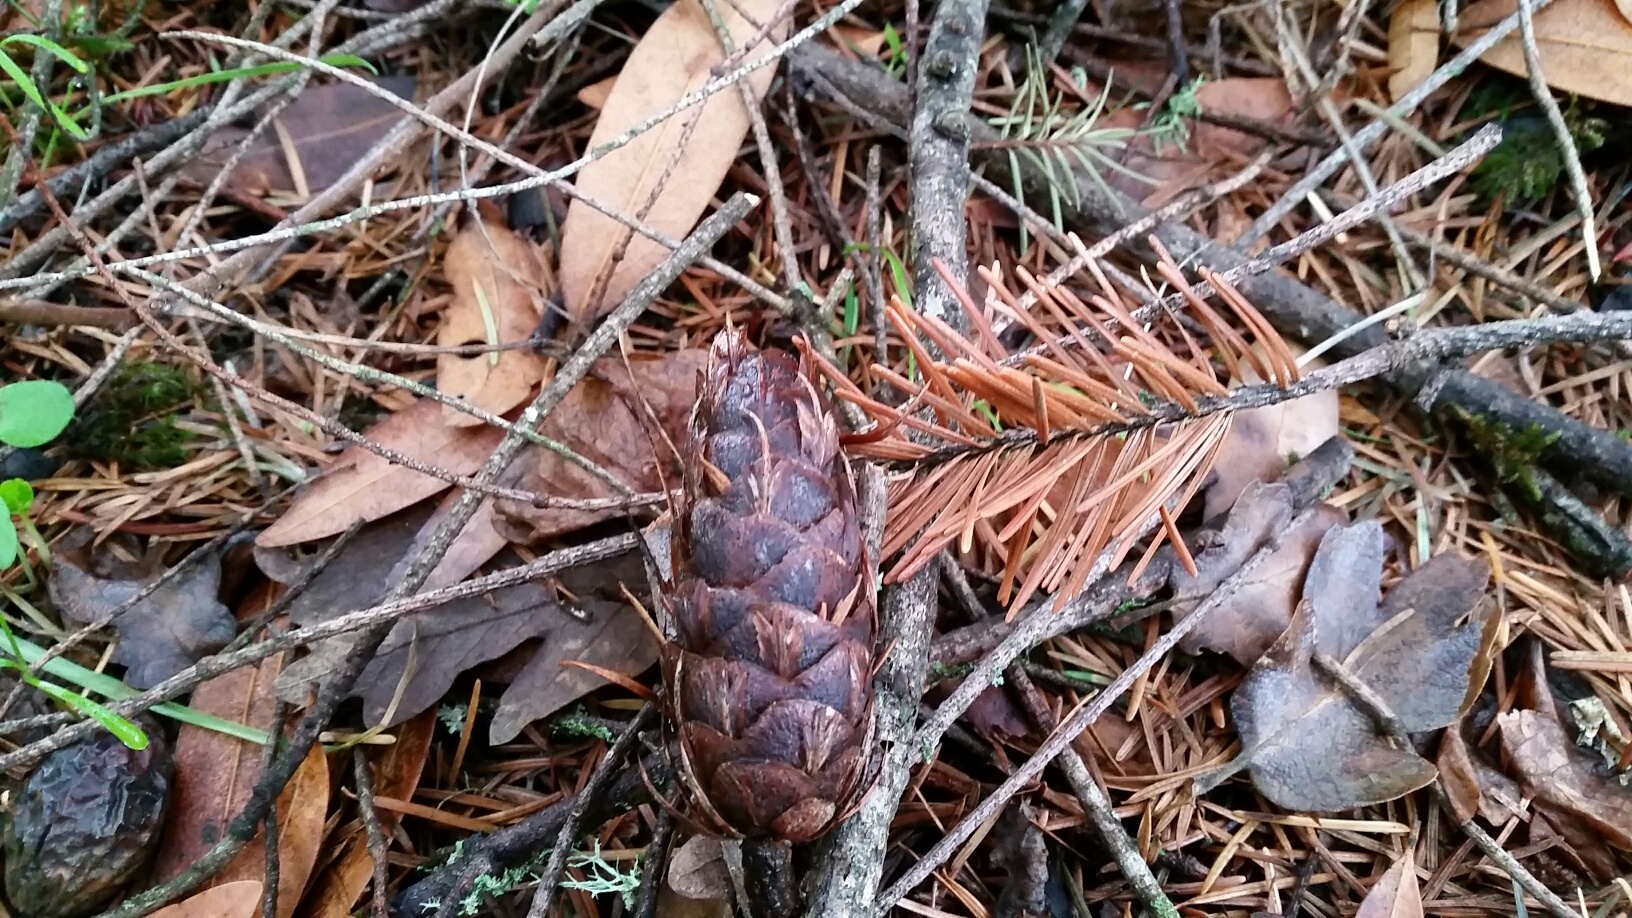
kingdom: Plantae
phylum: Tracheophyta
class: Pinopsida
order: Pinales
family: Pinaceae
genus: Pseudotsuga
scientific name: Pseudotsuga menziesii
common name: Douglas fir
